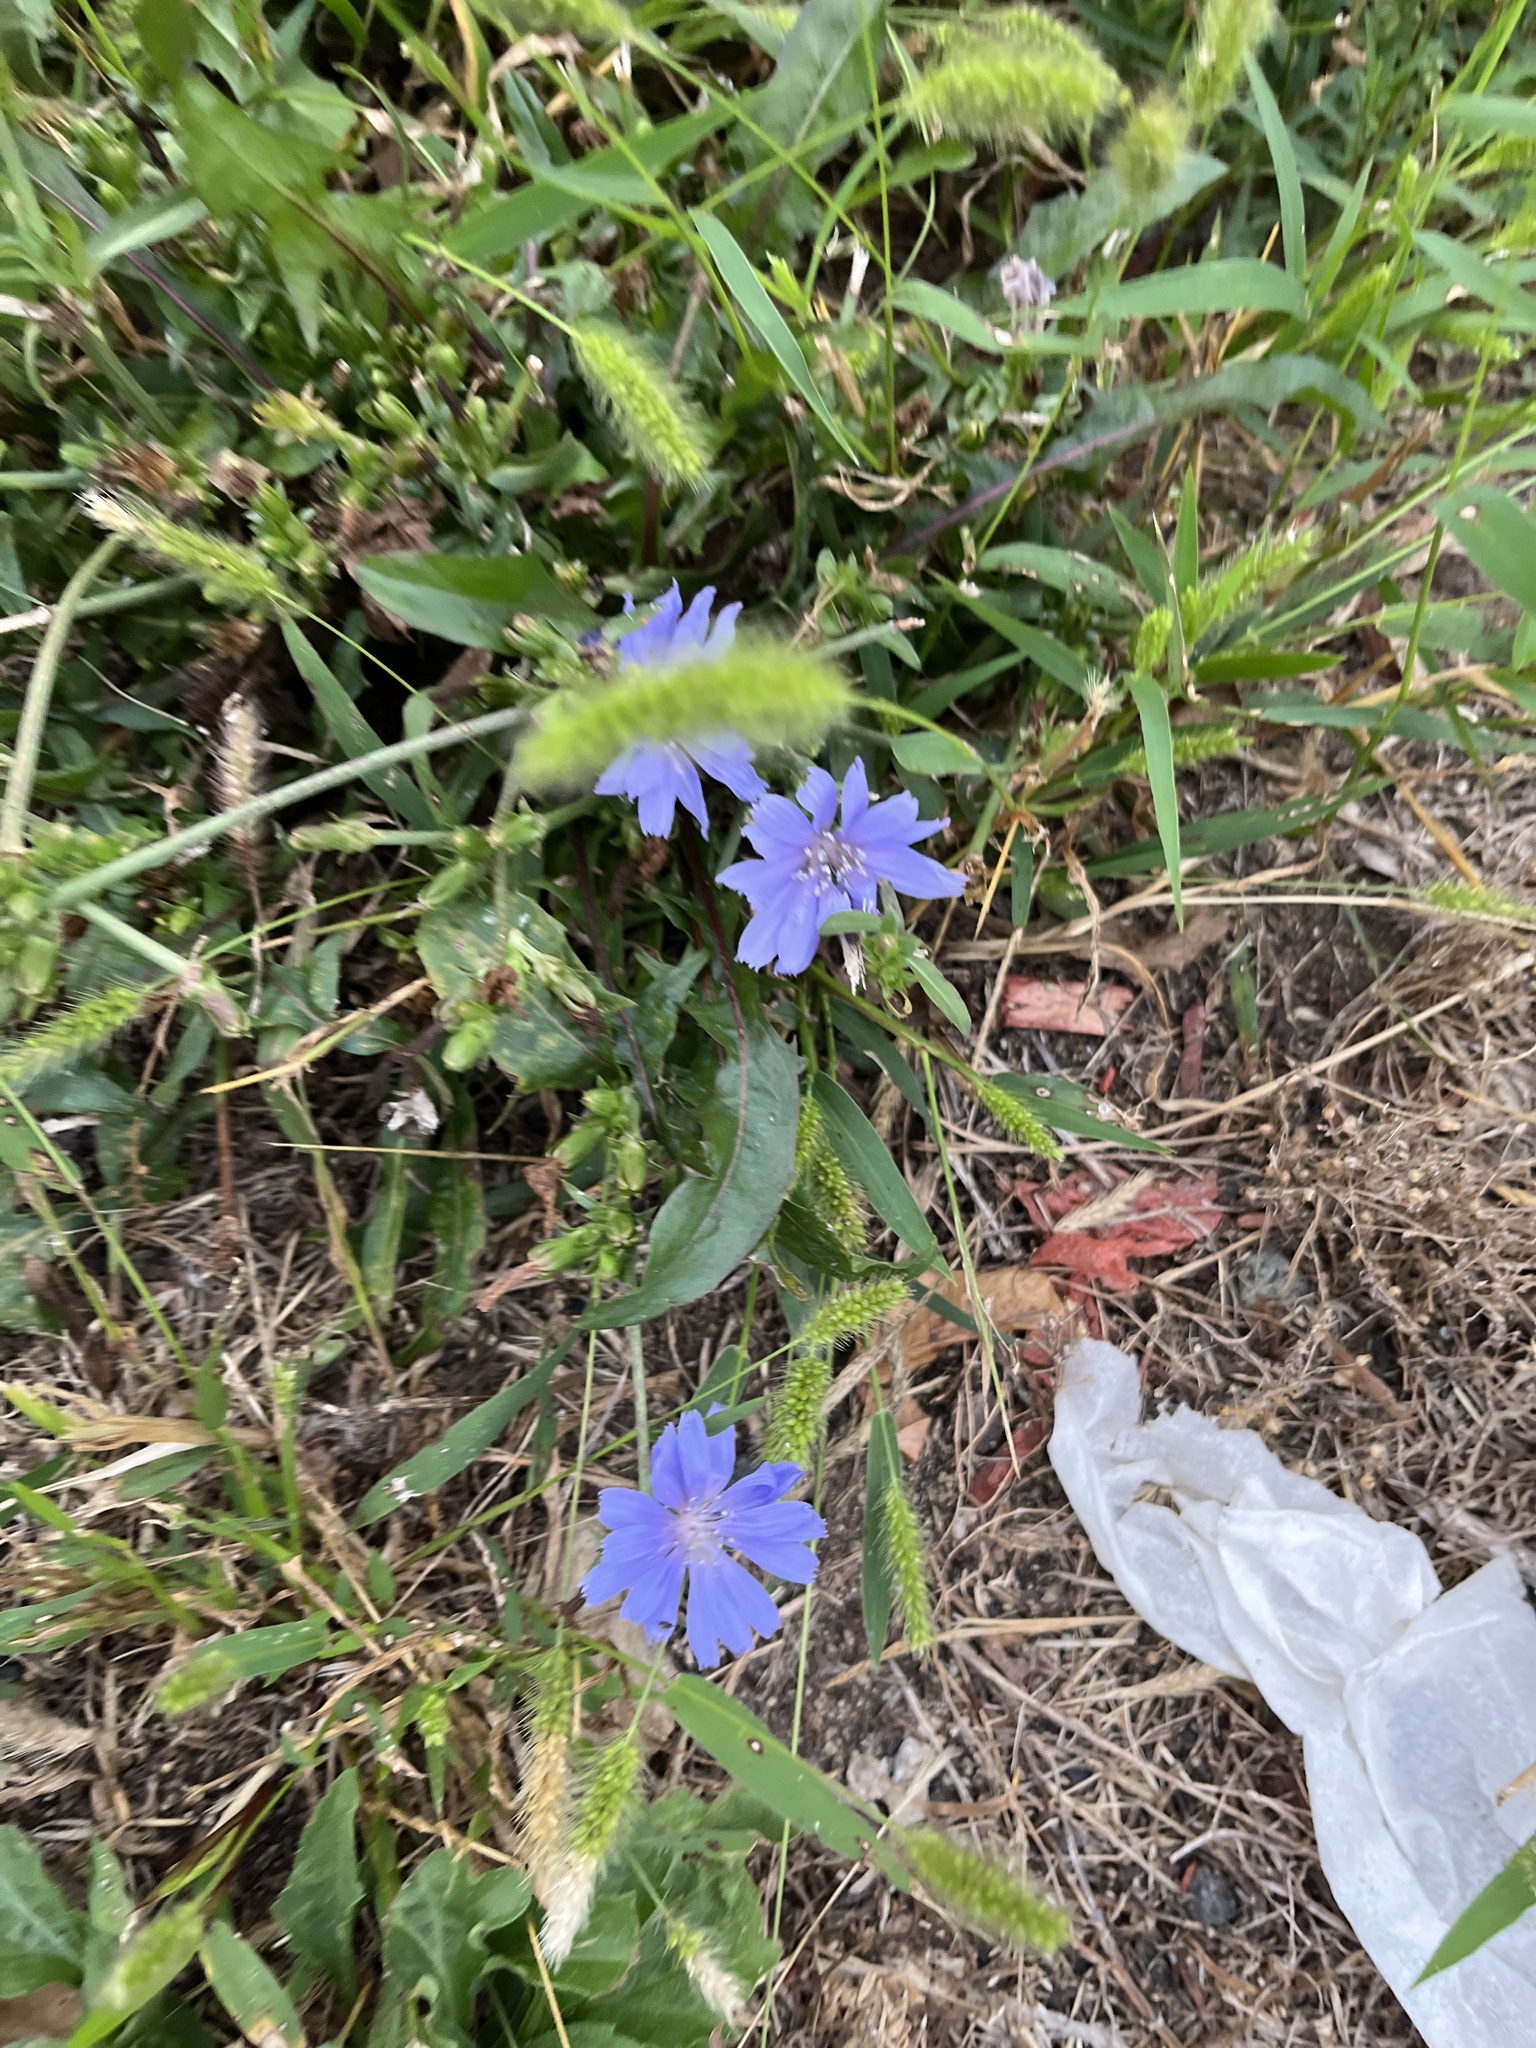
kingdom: Plantae
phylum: Tracheophyta
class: Magnoliopsida
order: Asterales
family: Asteraceae
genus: Cichorium
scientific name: Cichorium intybus
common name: Chicory
